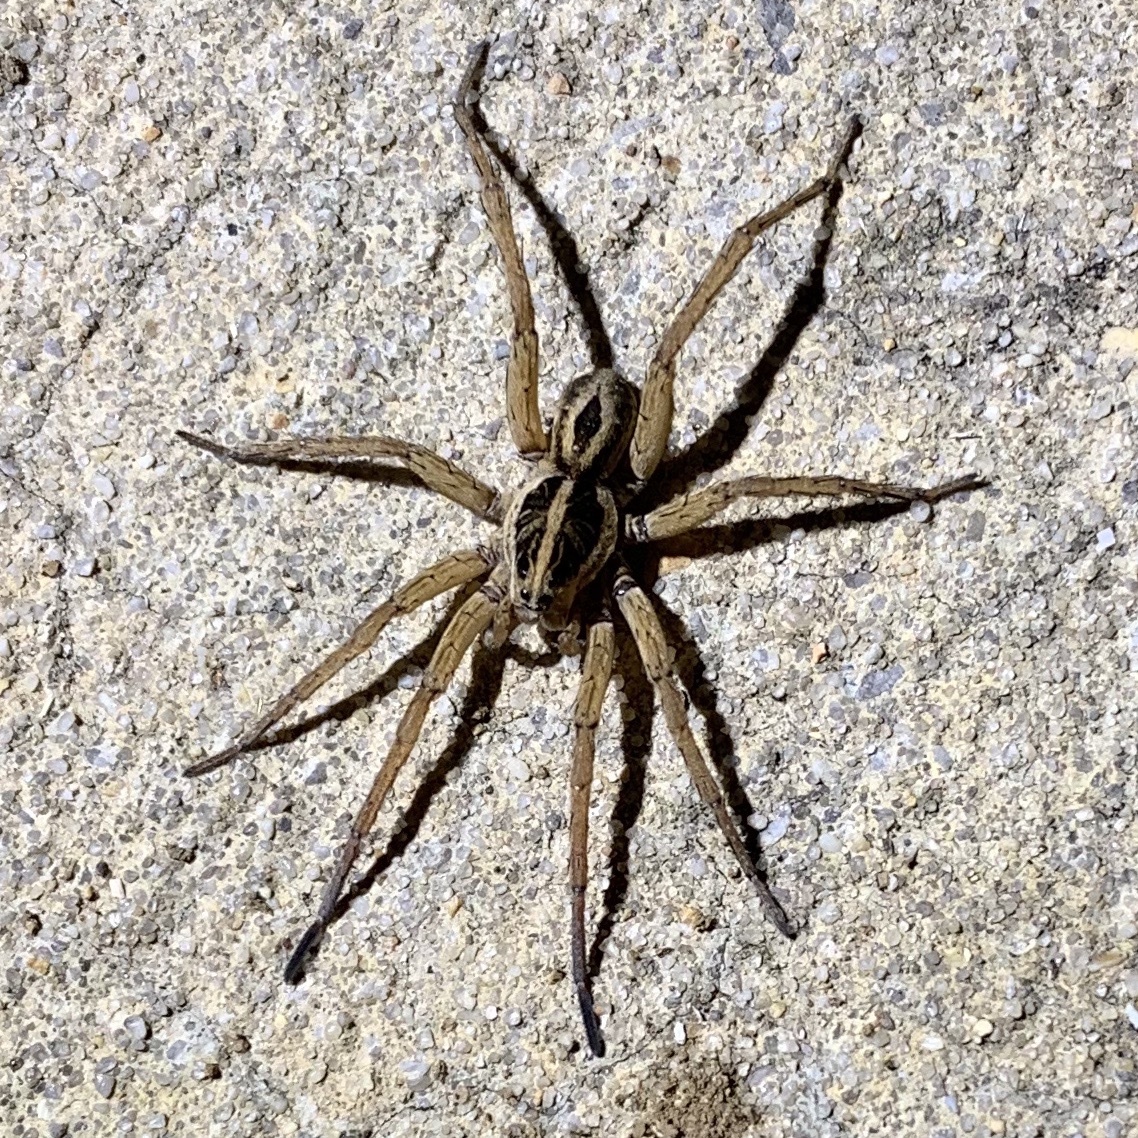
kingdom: Animalia
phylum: Arthropoda
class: Arachnida
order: Araneae
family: Lycosidae
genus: Tigrosa
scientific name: Tigrosa annexa
